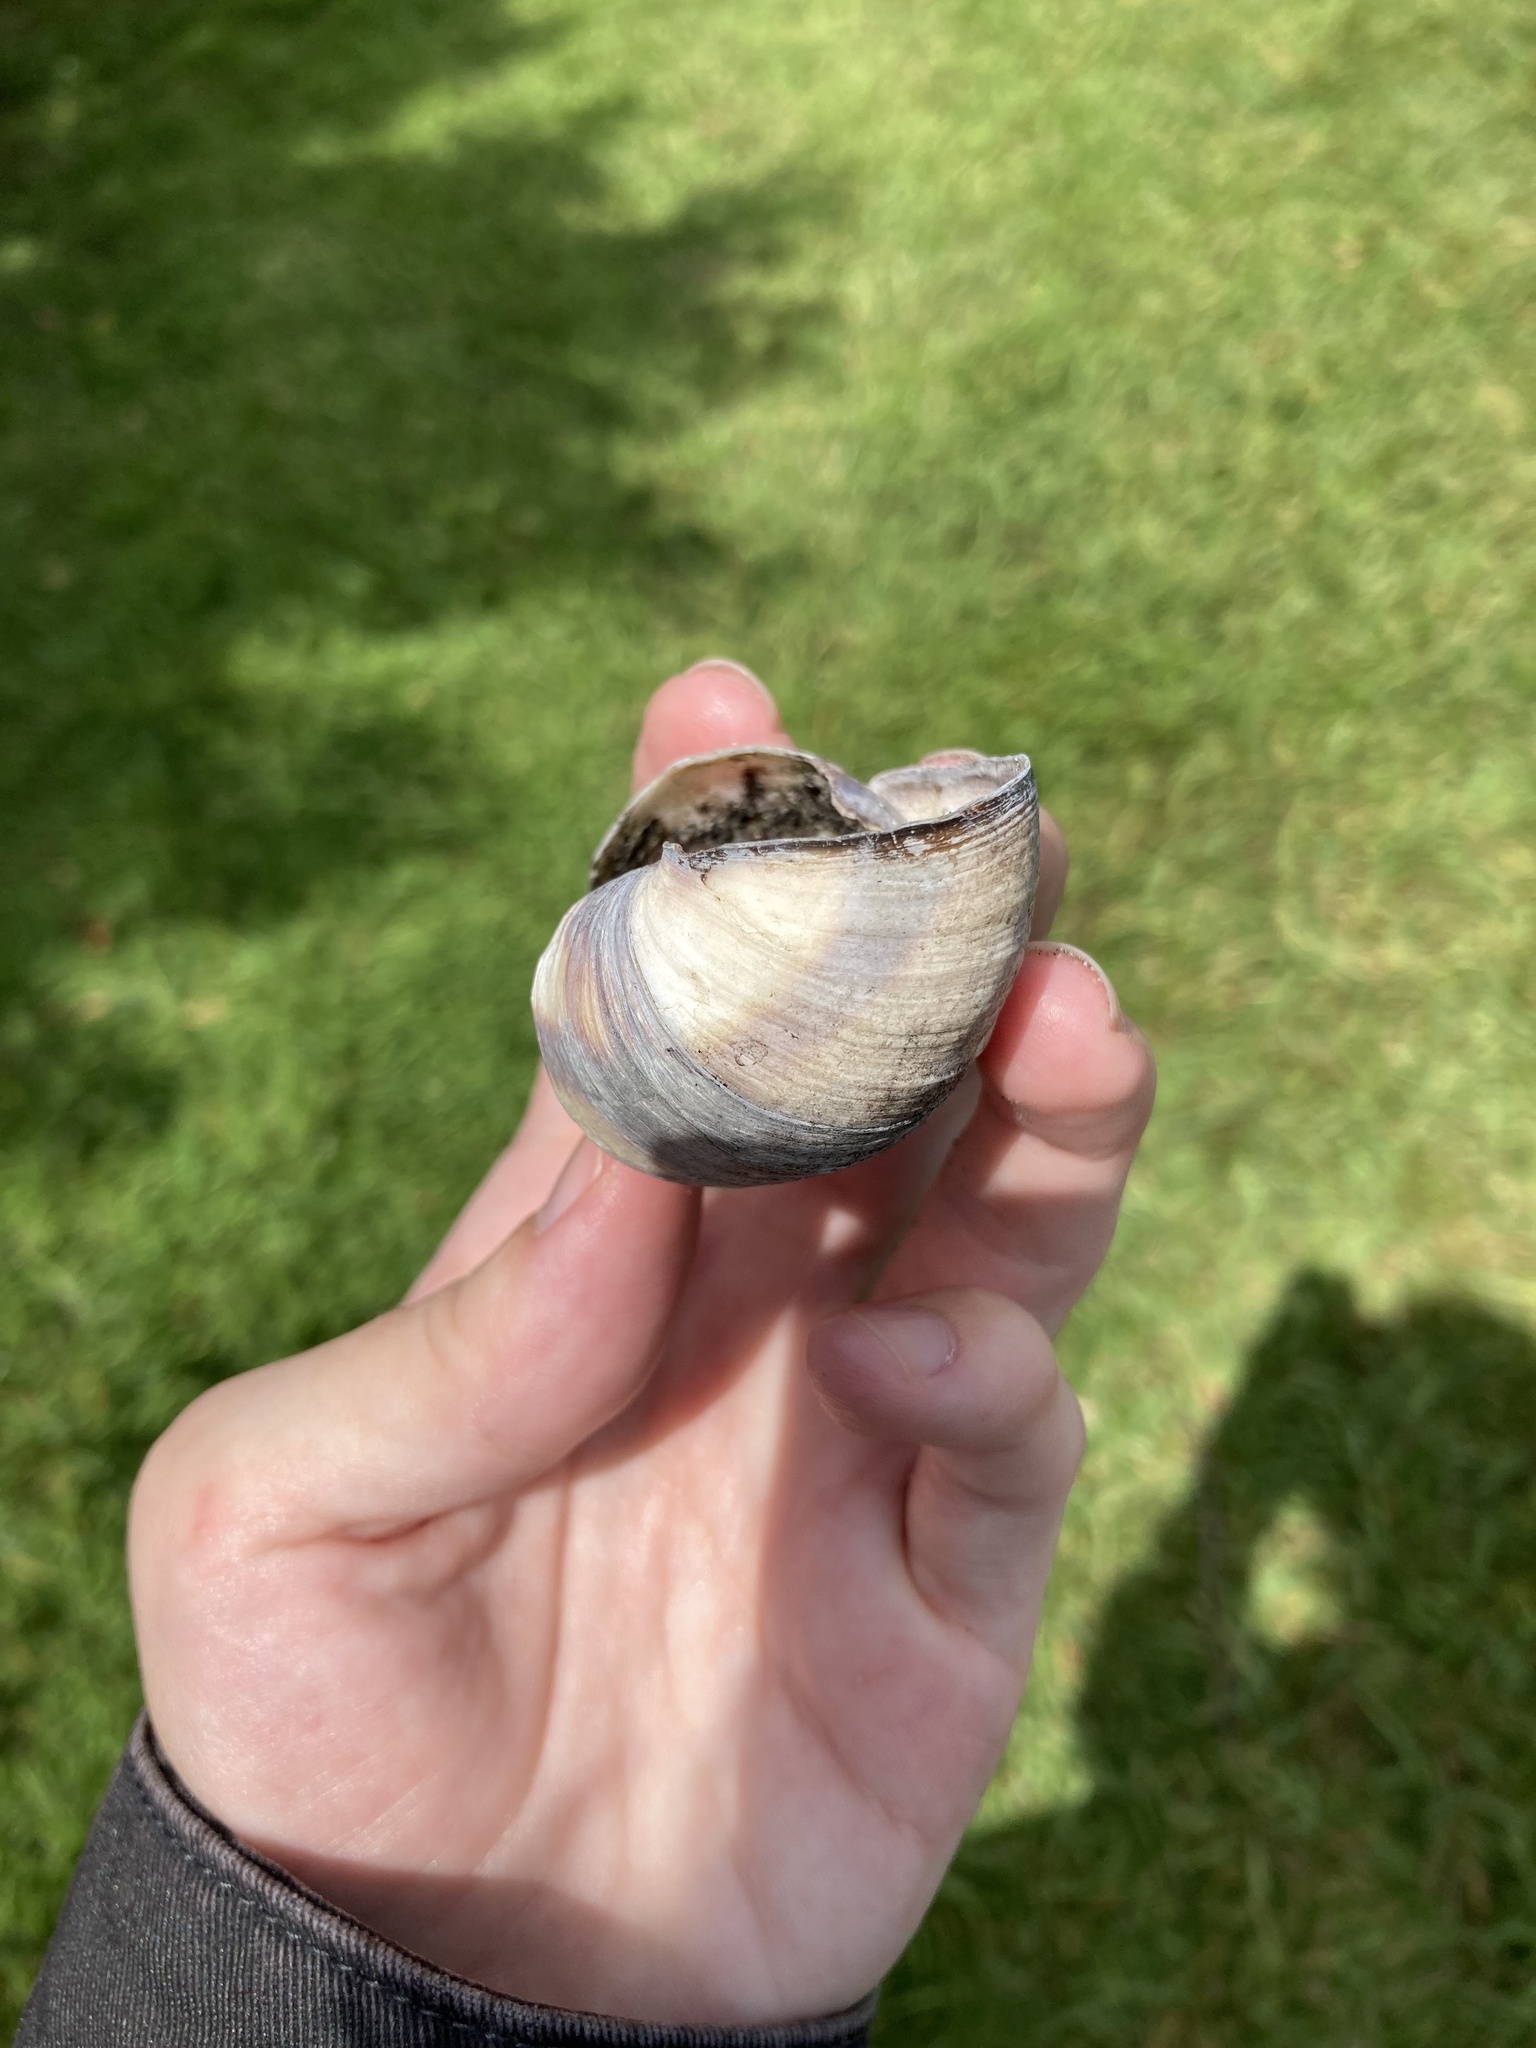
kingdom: Animalia
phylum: Mollusca
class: Gastropoda
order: Stylommatophora
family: Orthalicidae
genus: Orthalicus
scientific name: Orthalicus floridensis
